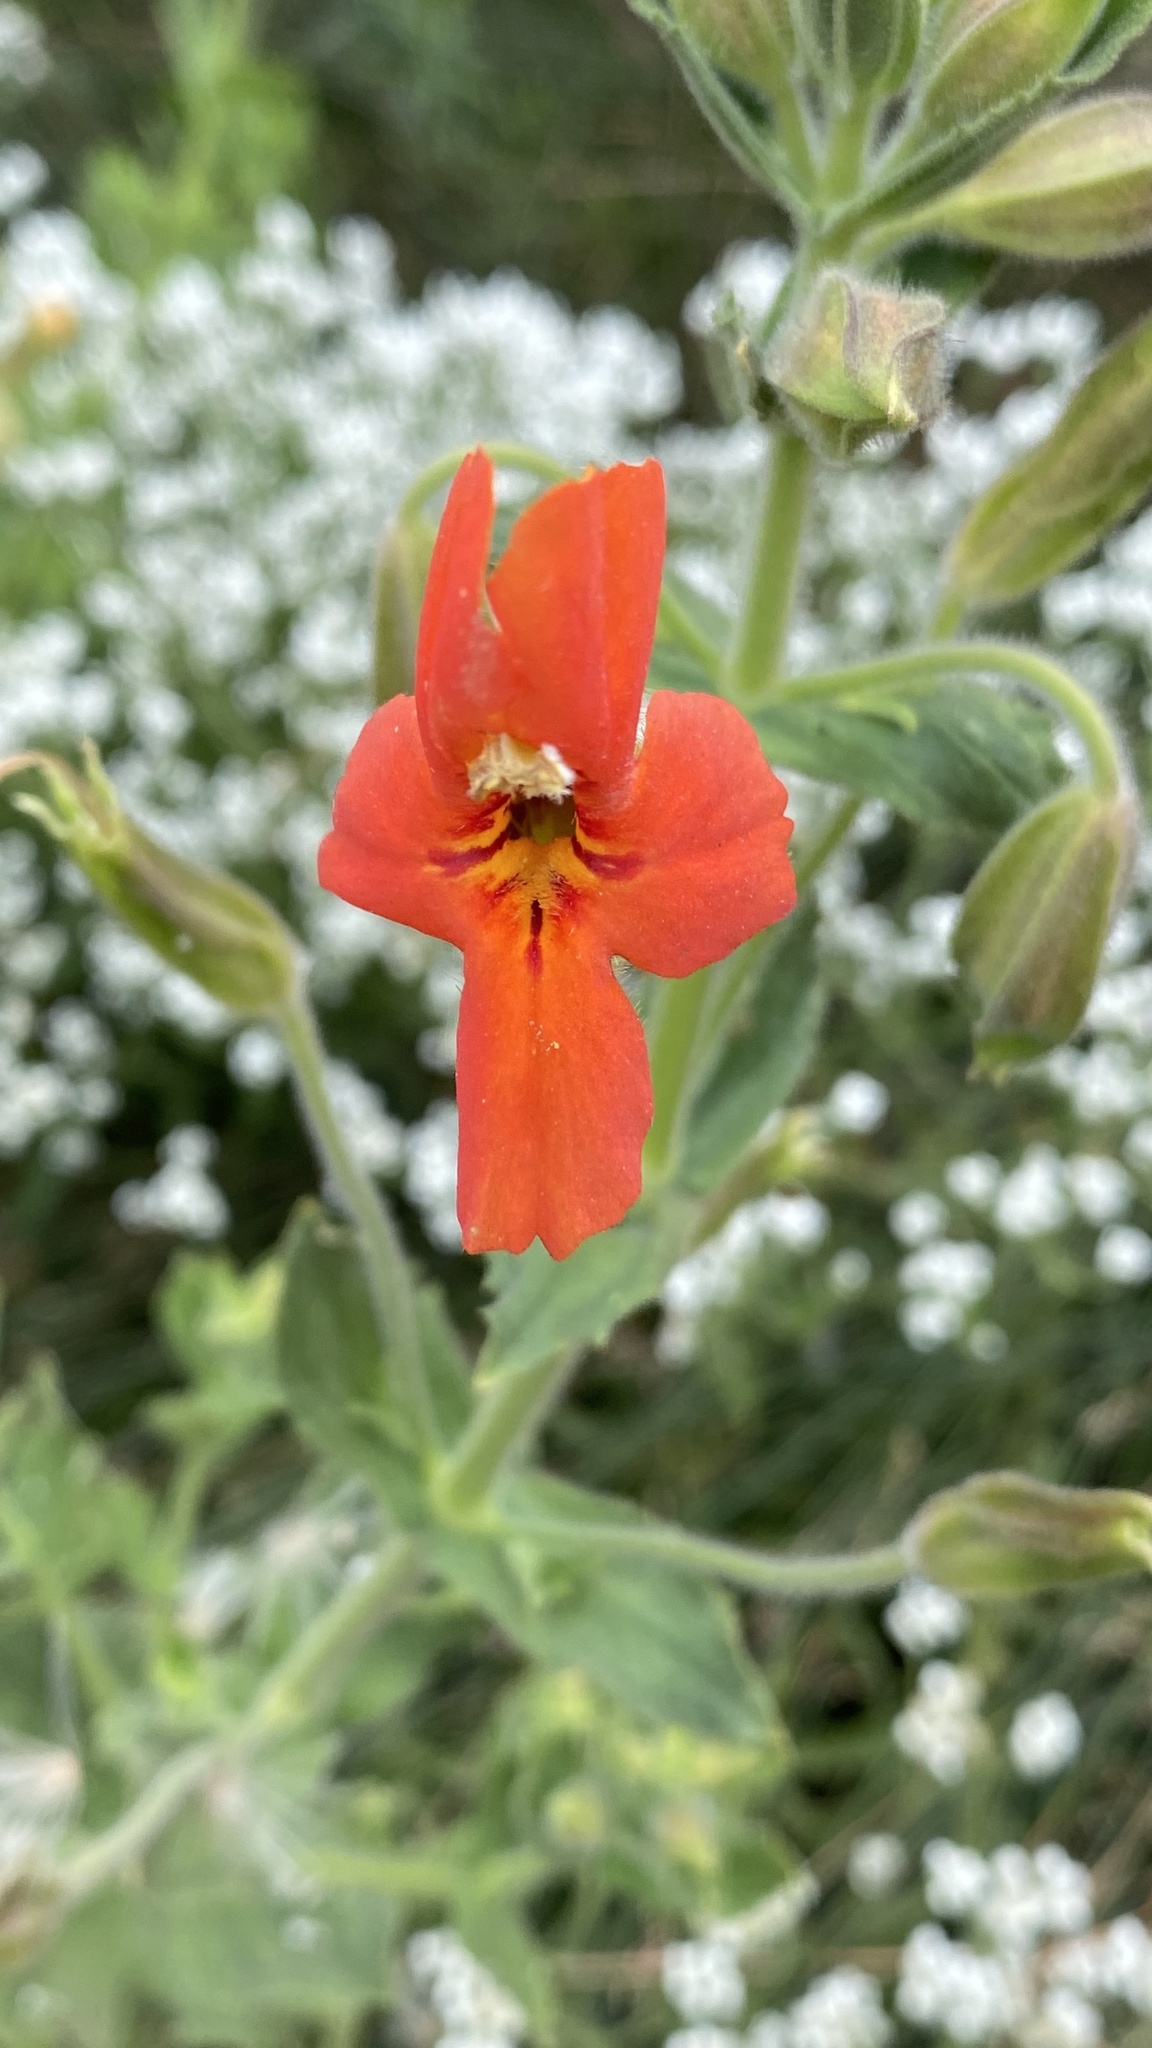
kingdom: Plantae
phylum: Tracheophyta
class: Magnoliopsida
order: Lamiales
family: Phrymaceae
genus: Erythranthe
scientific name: Erythranthe cardinalis
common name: Scarlet monkey-flower
